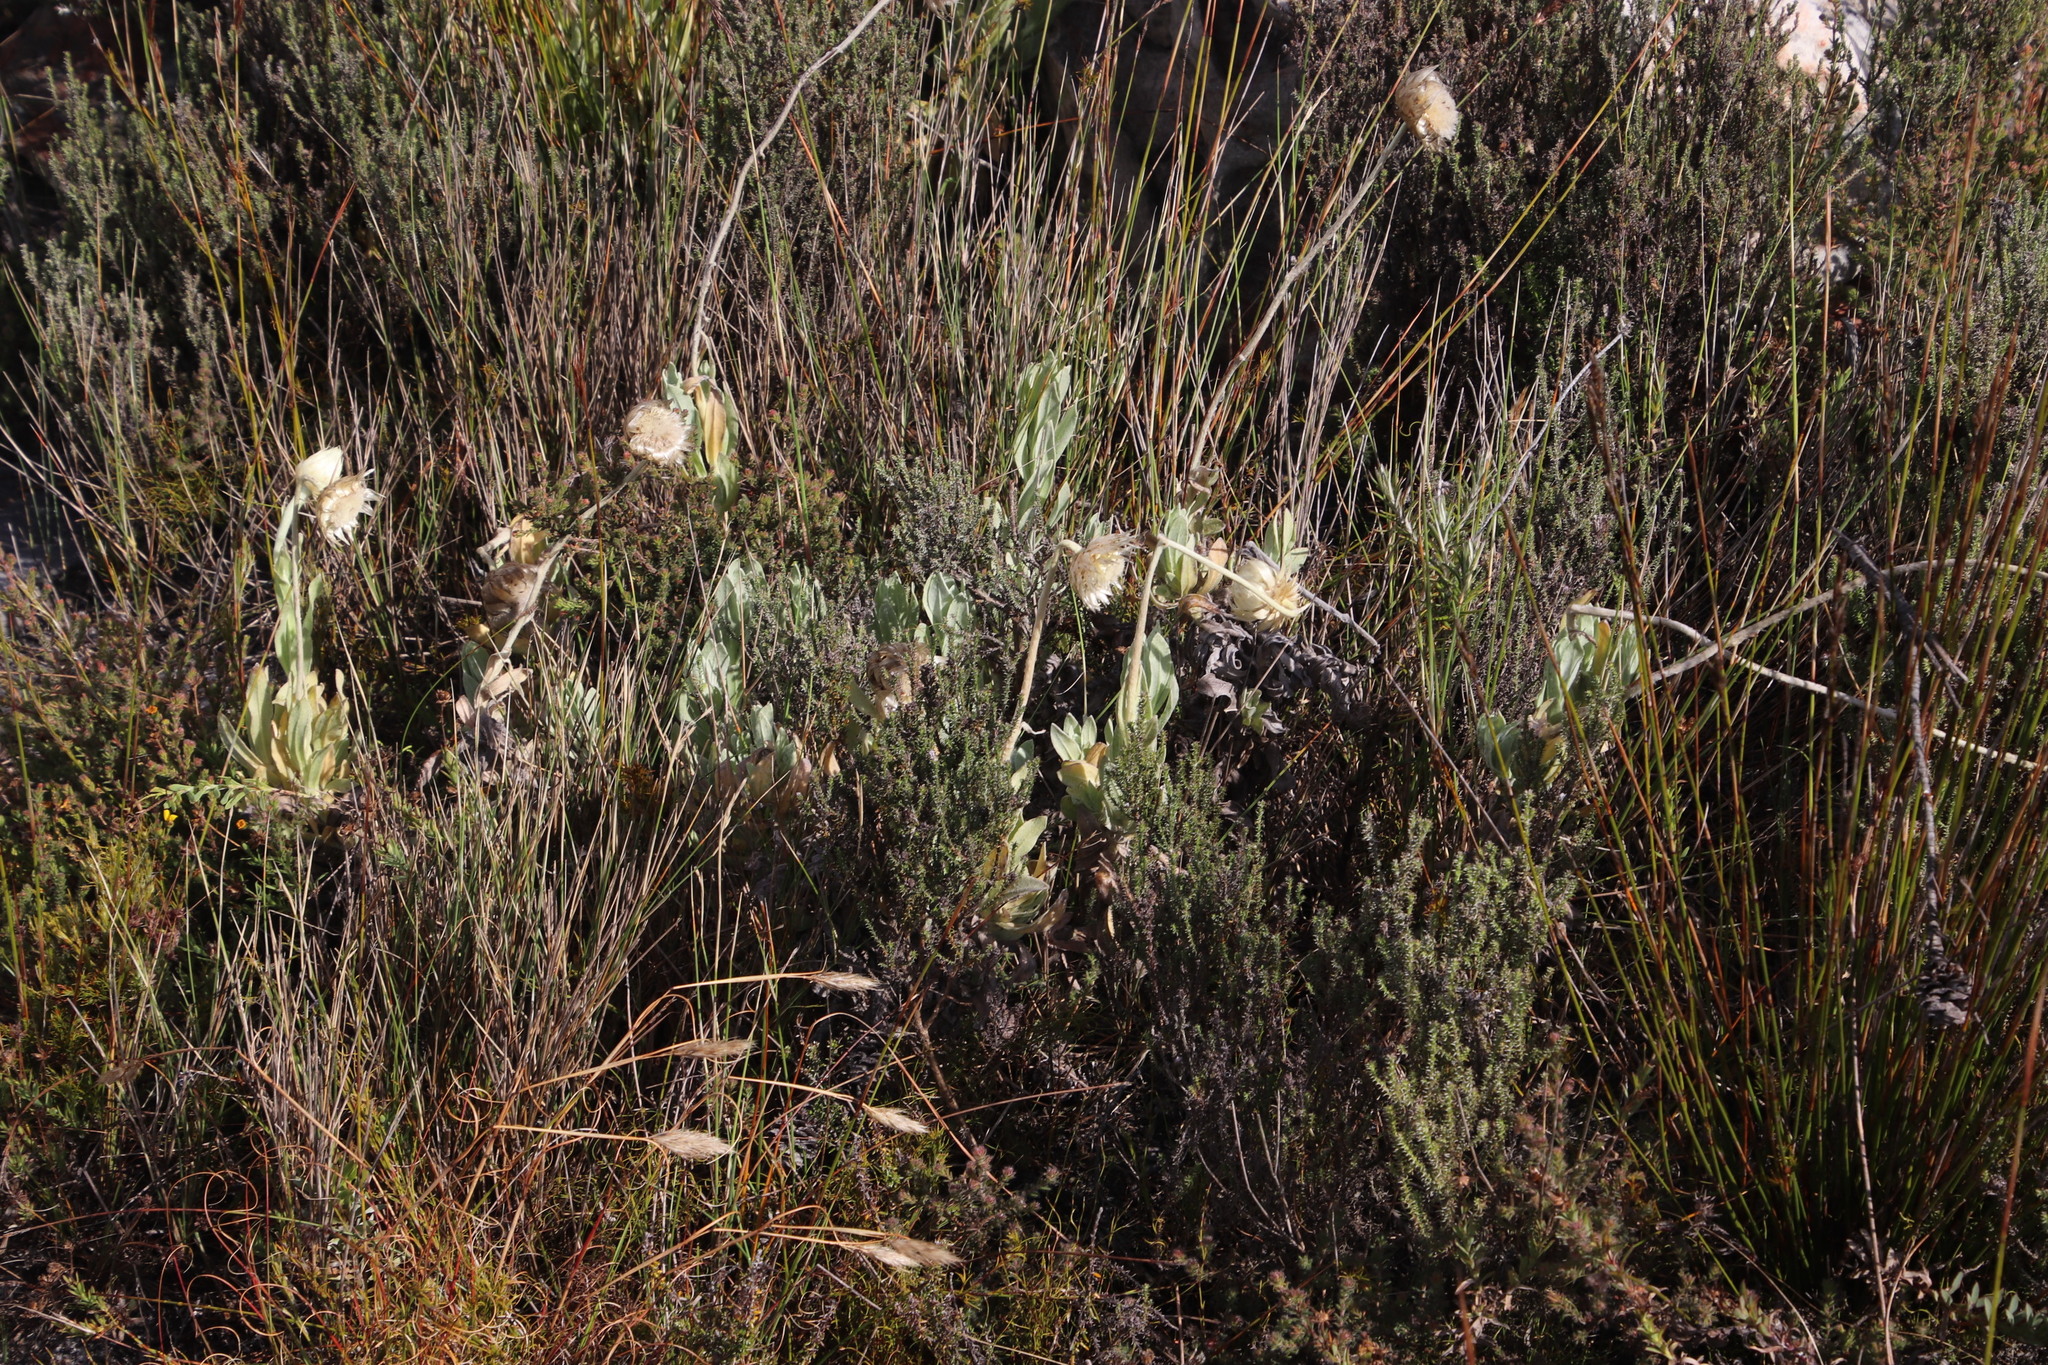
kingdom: Plantae
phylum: Tracheophyta
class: Magnoliopsida
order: Asterales
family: Asteraceae
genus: Syncarpha
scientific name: Syncarpha speciosissima
